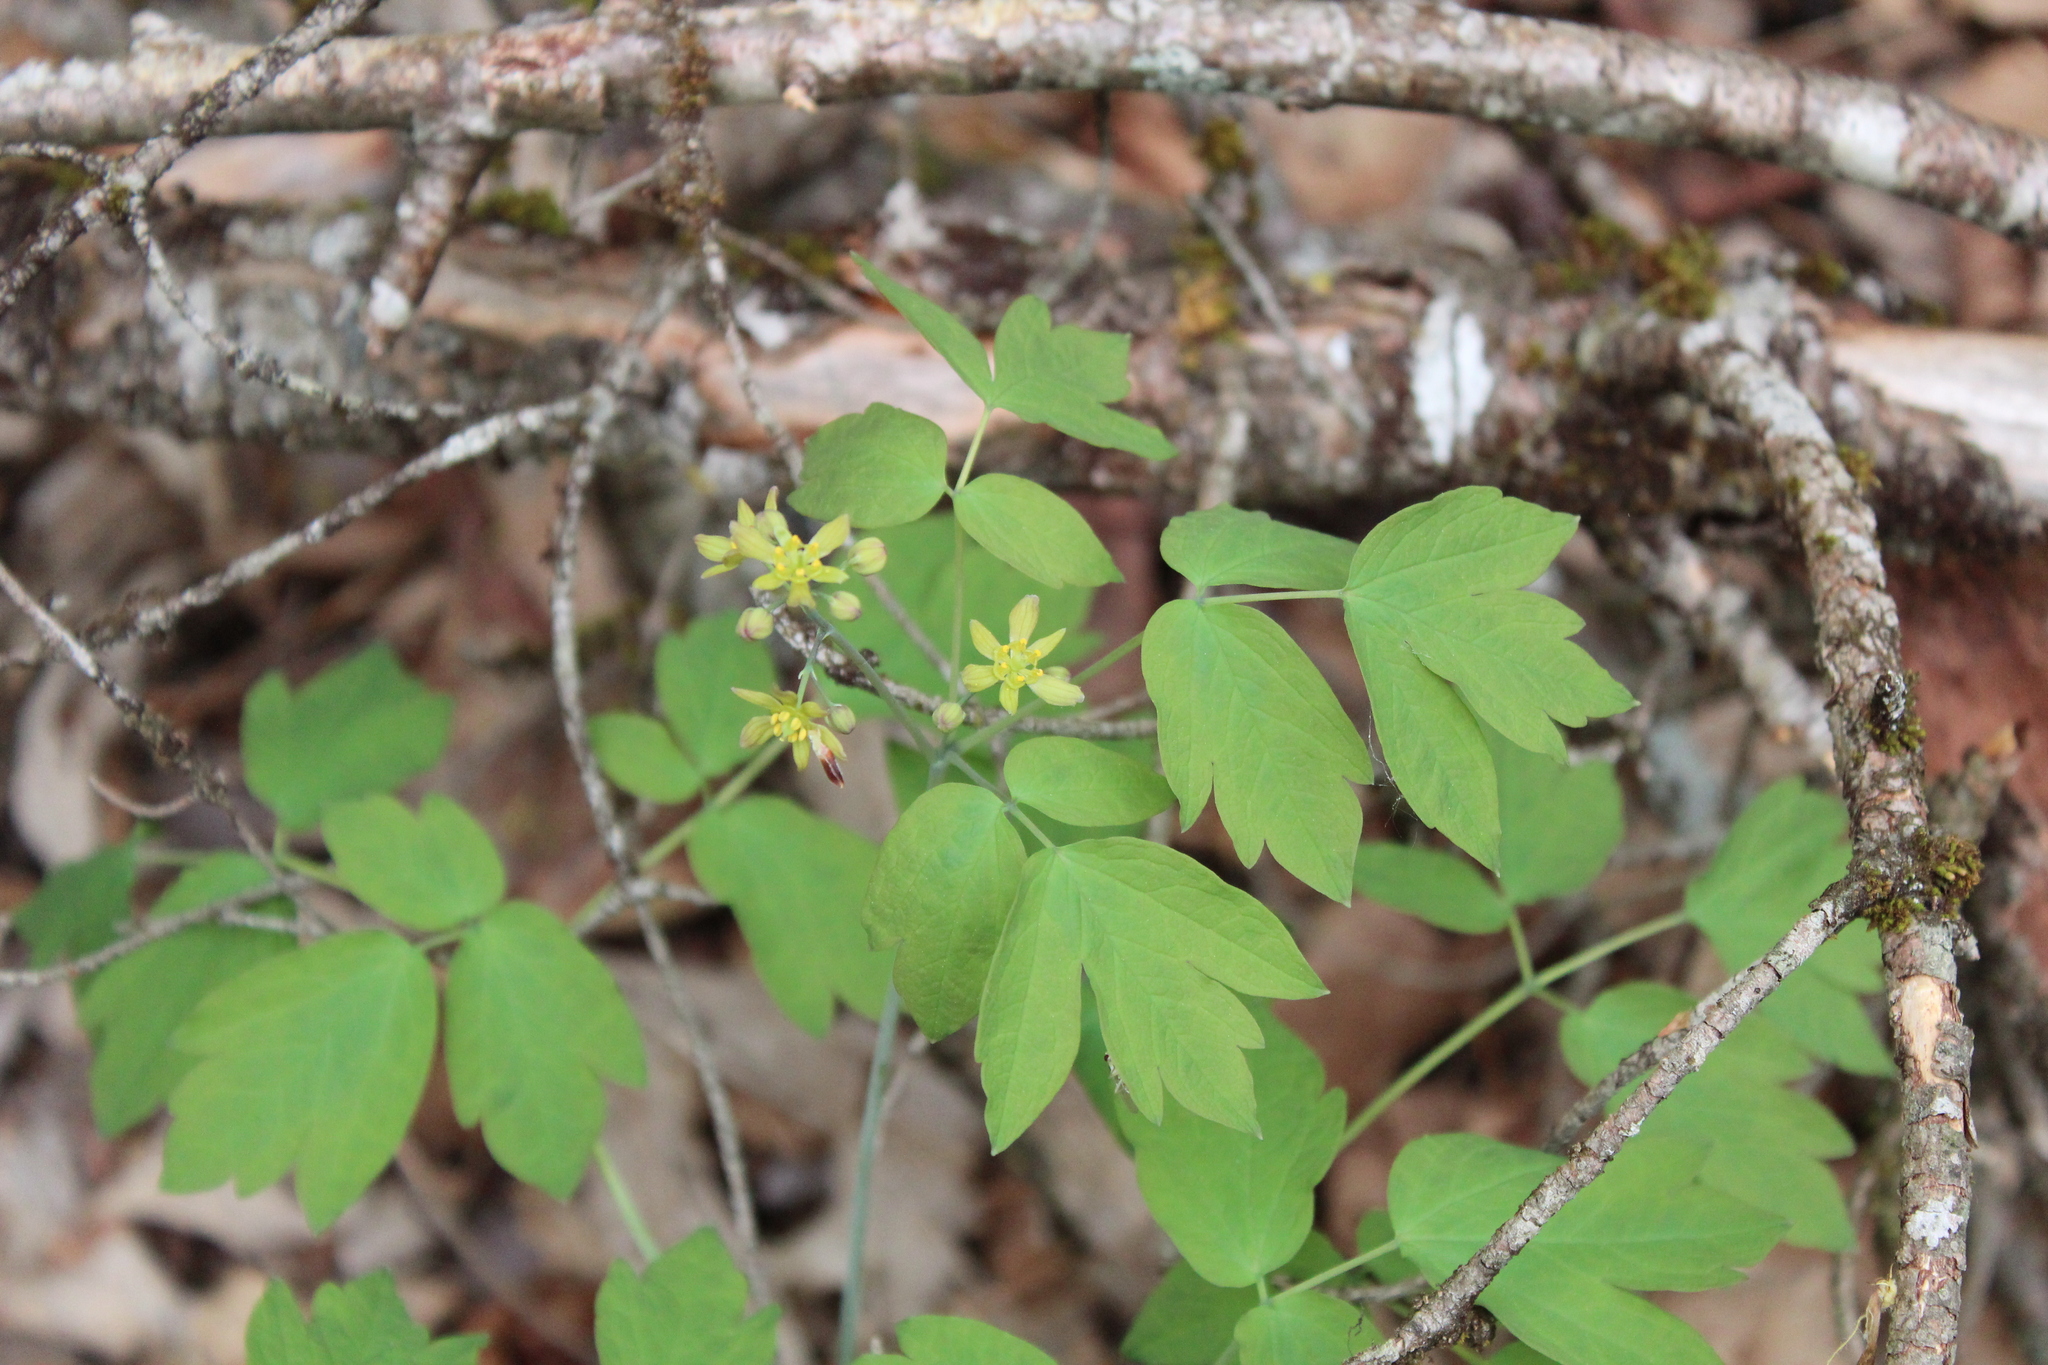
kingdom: Plantae
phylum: Tracheophyta
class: Magnoliopsida
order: Ranunculales
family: Berberidaceae
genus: Caulophyllum
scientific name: Caulophyllum thalictroides
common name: Blue cohosh
